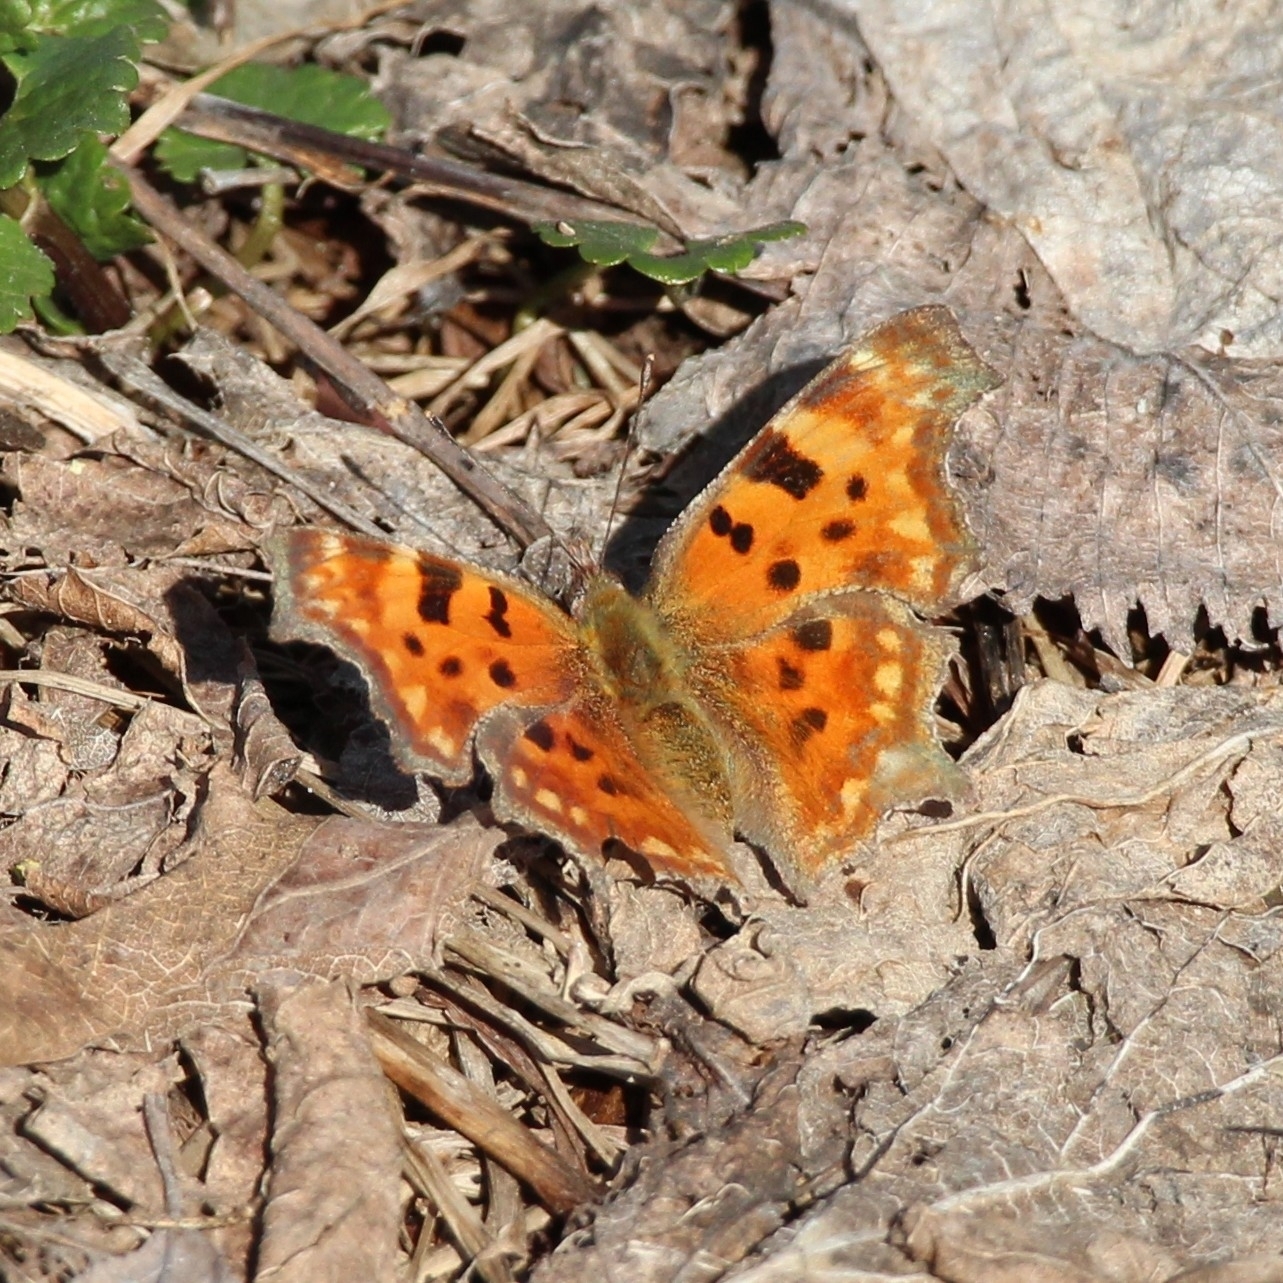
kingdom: Animalia
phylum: Arthropoda
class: Insecta
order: Lepidoptera
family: Nymphalidae
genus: Polygonia
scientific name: Polygonia c-album
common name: Comma
